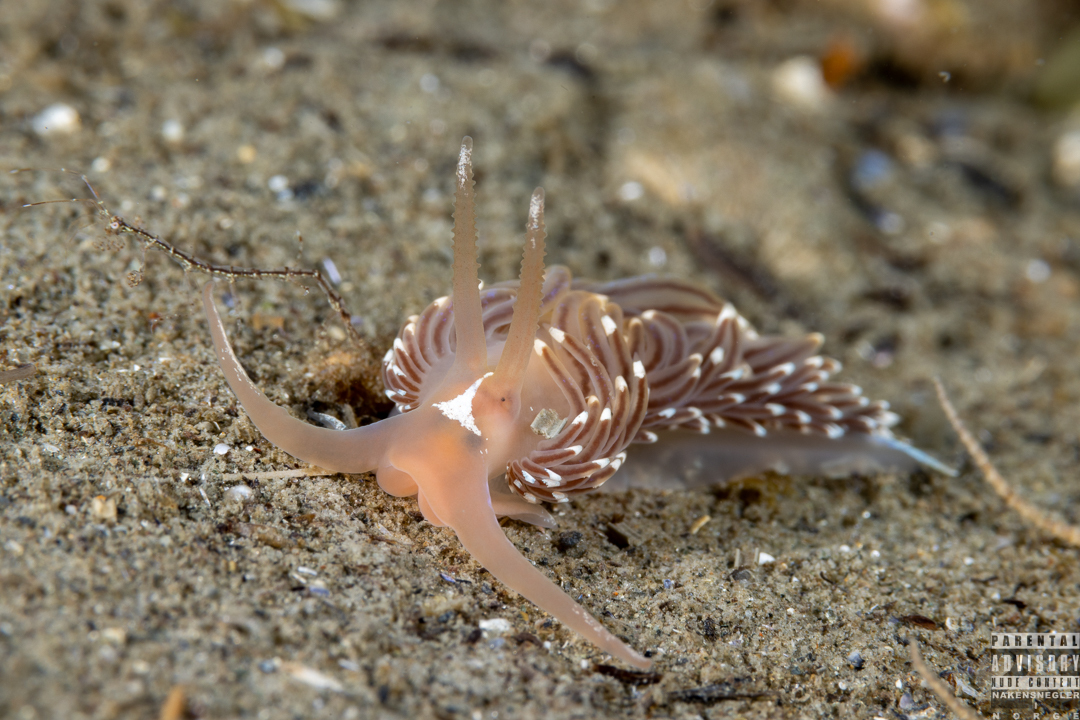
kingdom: Animalia
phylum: Mollusca
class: Gastropoda
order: Nudibranchia
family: Facelinidae
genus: Facelina
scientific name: Facelina bostoniensis
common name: Boston facelina
